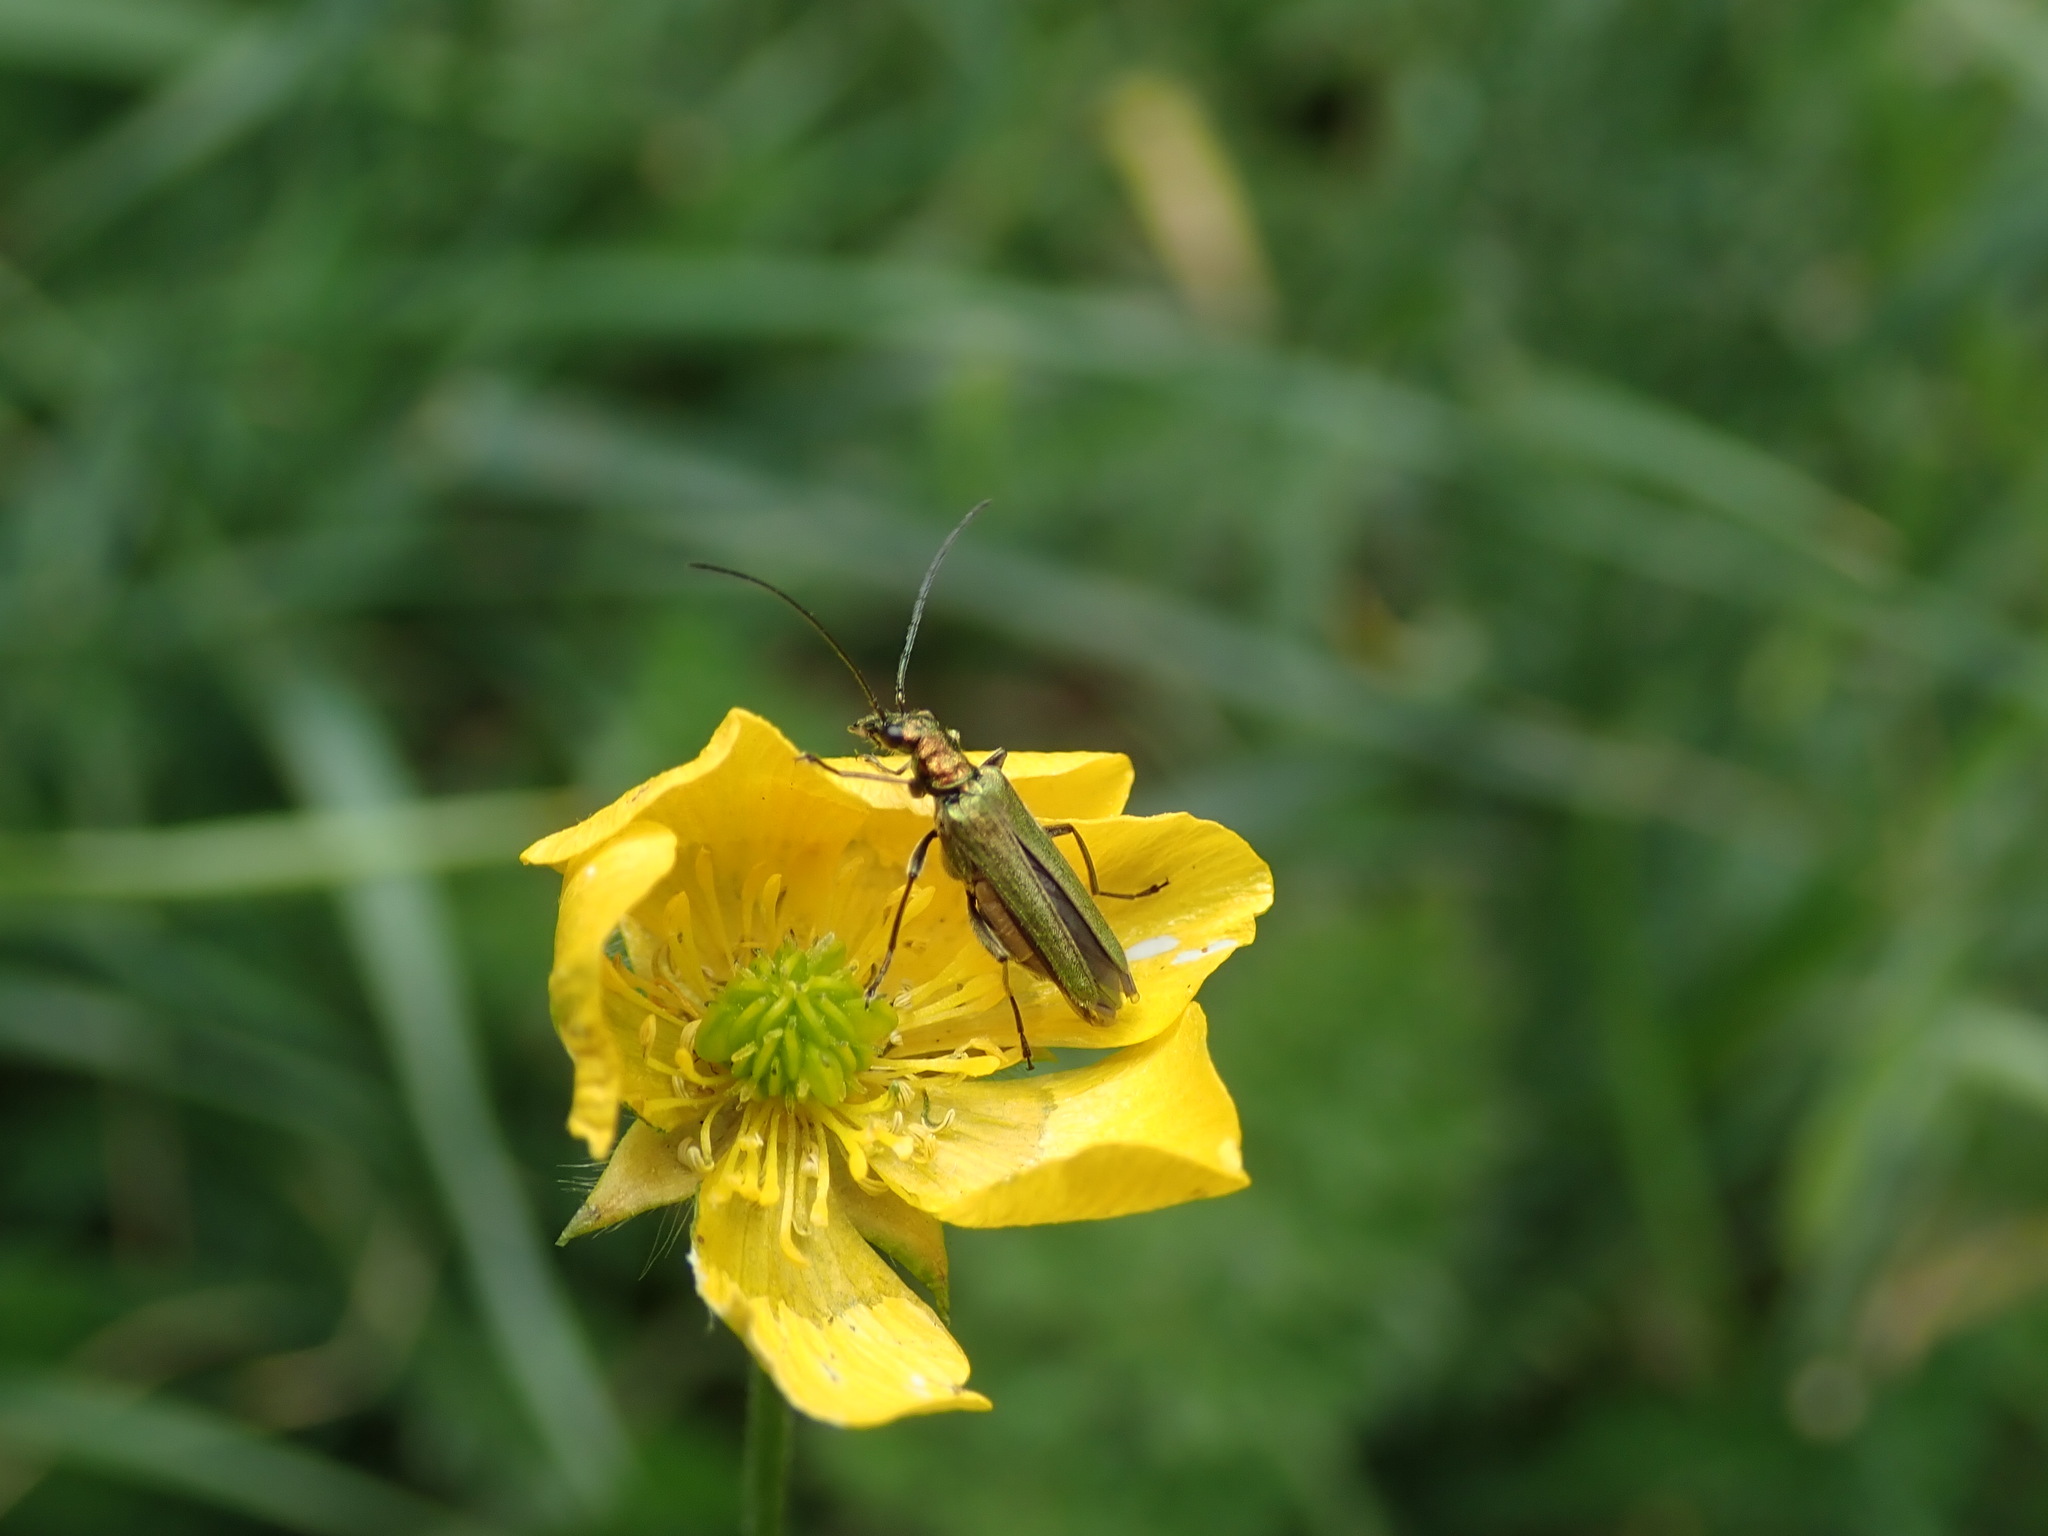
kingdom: Animalia
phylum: Arthropoda
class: Insecta
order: Coleoptera
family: Oedemeridae
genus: Oedemera
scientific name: Oedemera nobilis
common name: Swollen-thighed beetle
